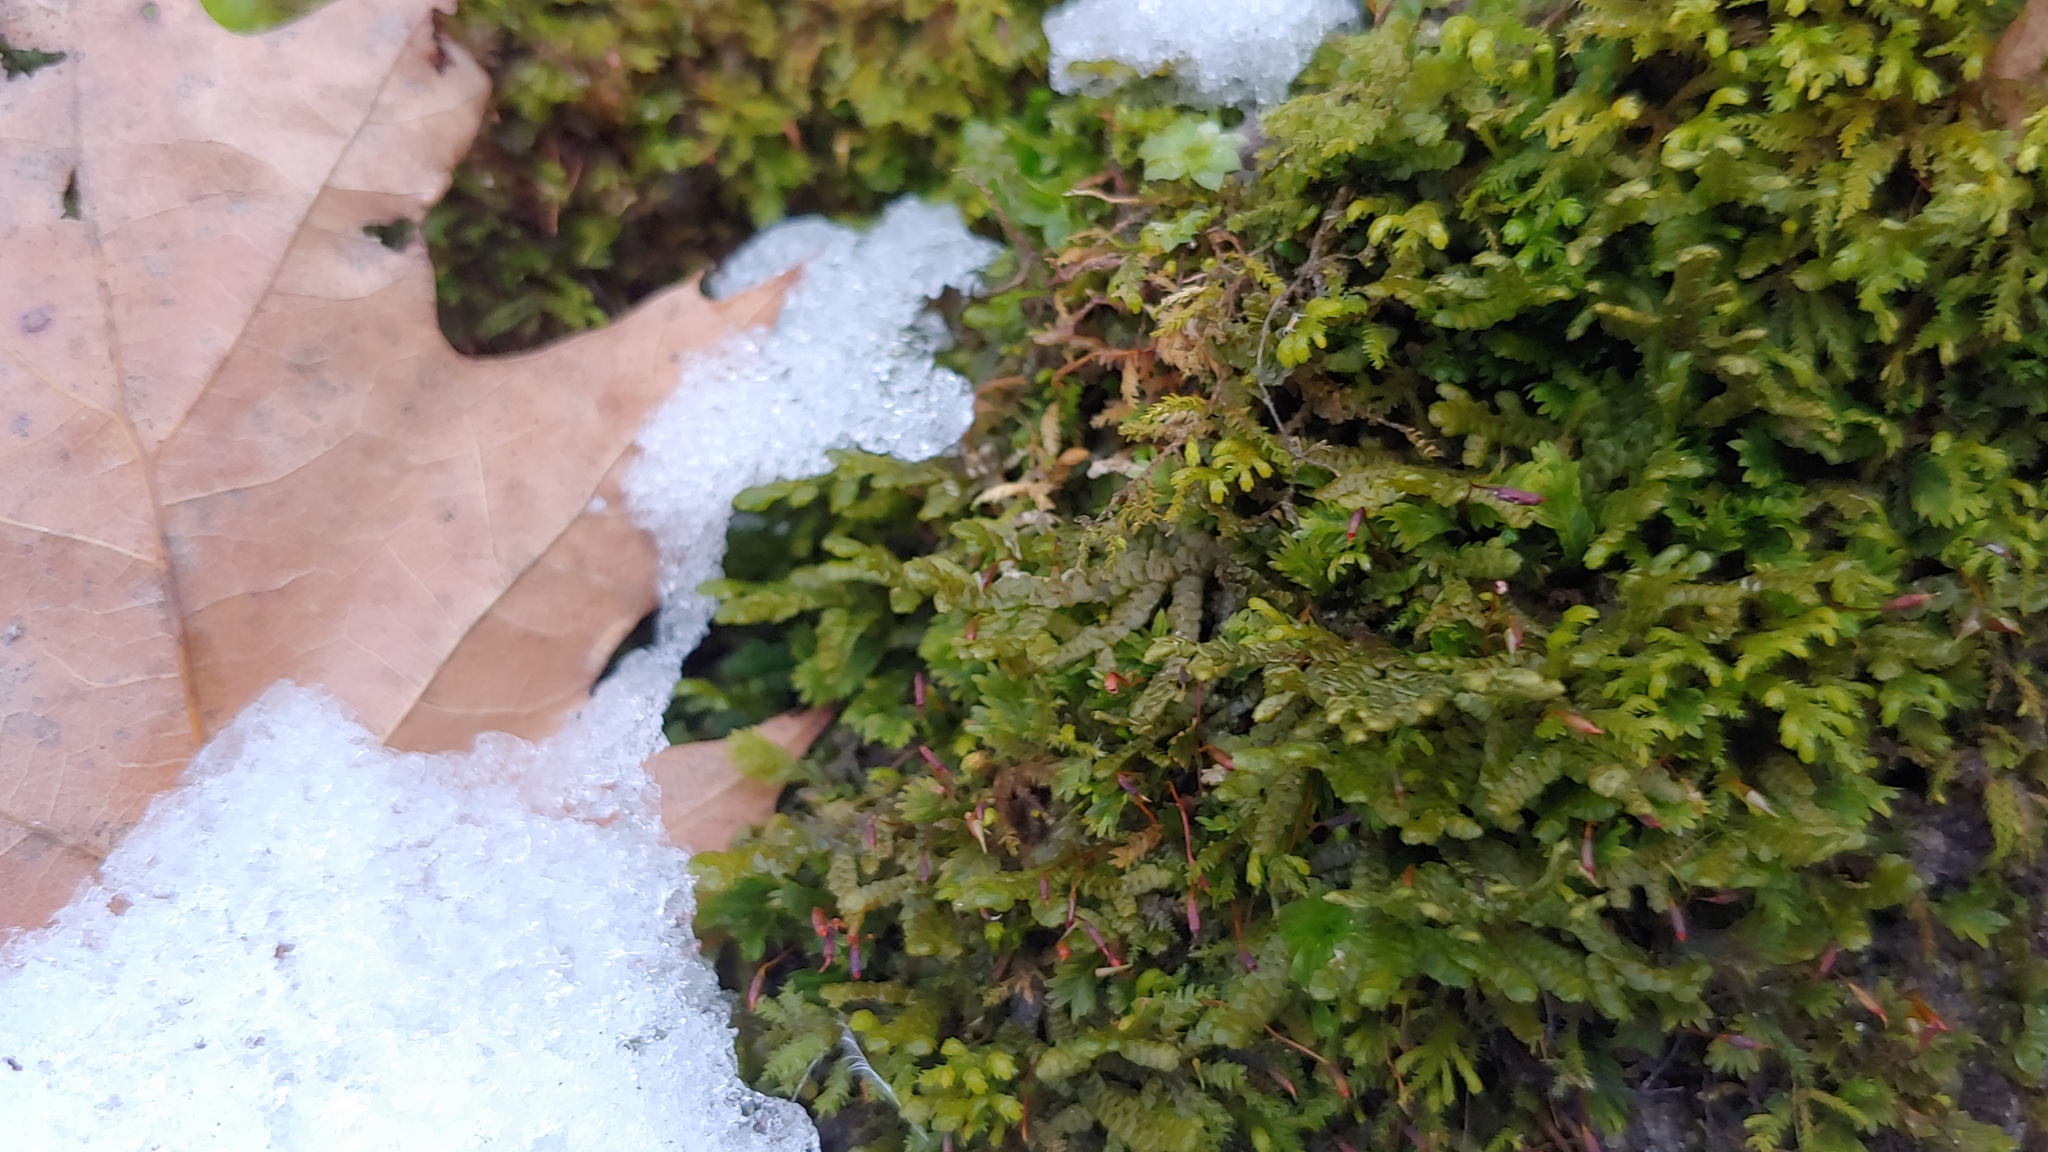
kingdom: Plantae
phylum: Marchantiophyta
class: Jungermanniopsida
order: Porellales
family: Porellaceae
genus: Porella
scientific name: Porella platyphylla
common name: Wall scalewort
